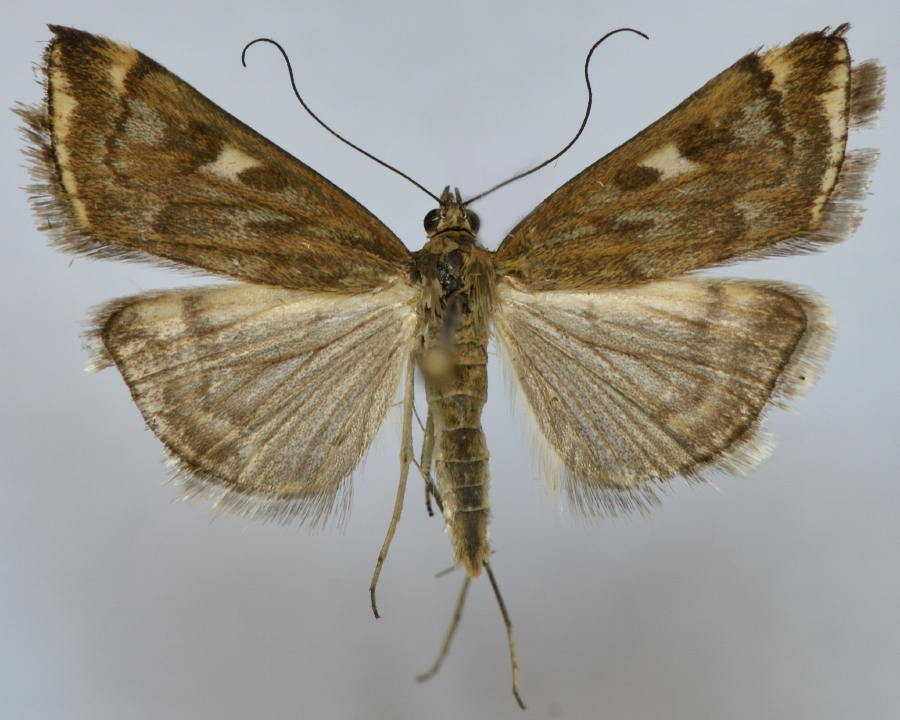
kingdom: Animalia
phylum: Arthropoda
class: Insecta
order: Lepidoptera
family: Crambidae
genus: Loxostege
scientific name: Loxostege sticticalis
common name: Crambid moth
